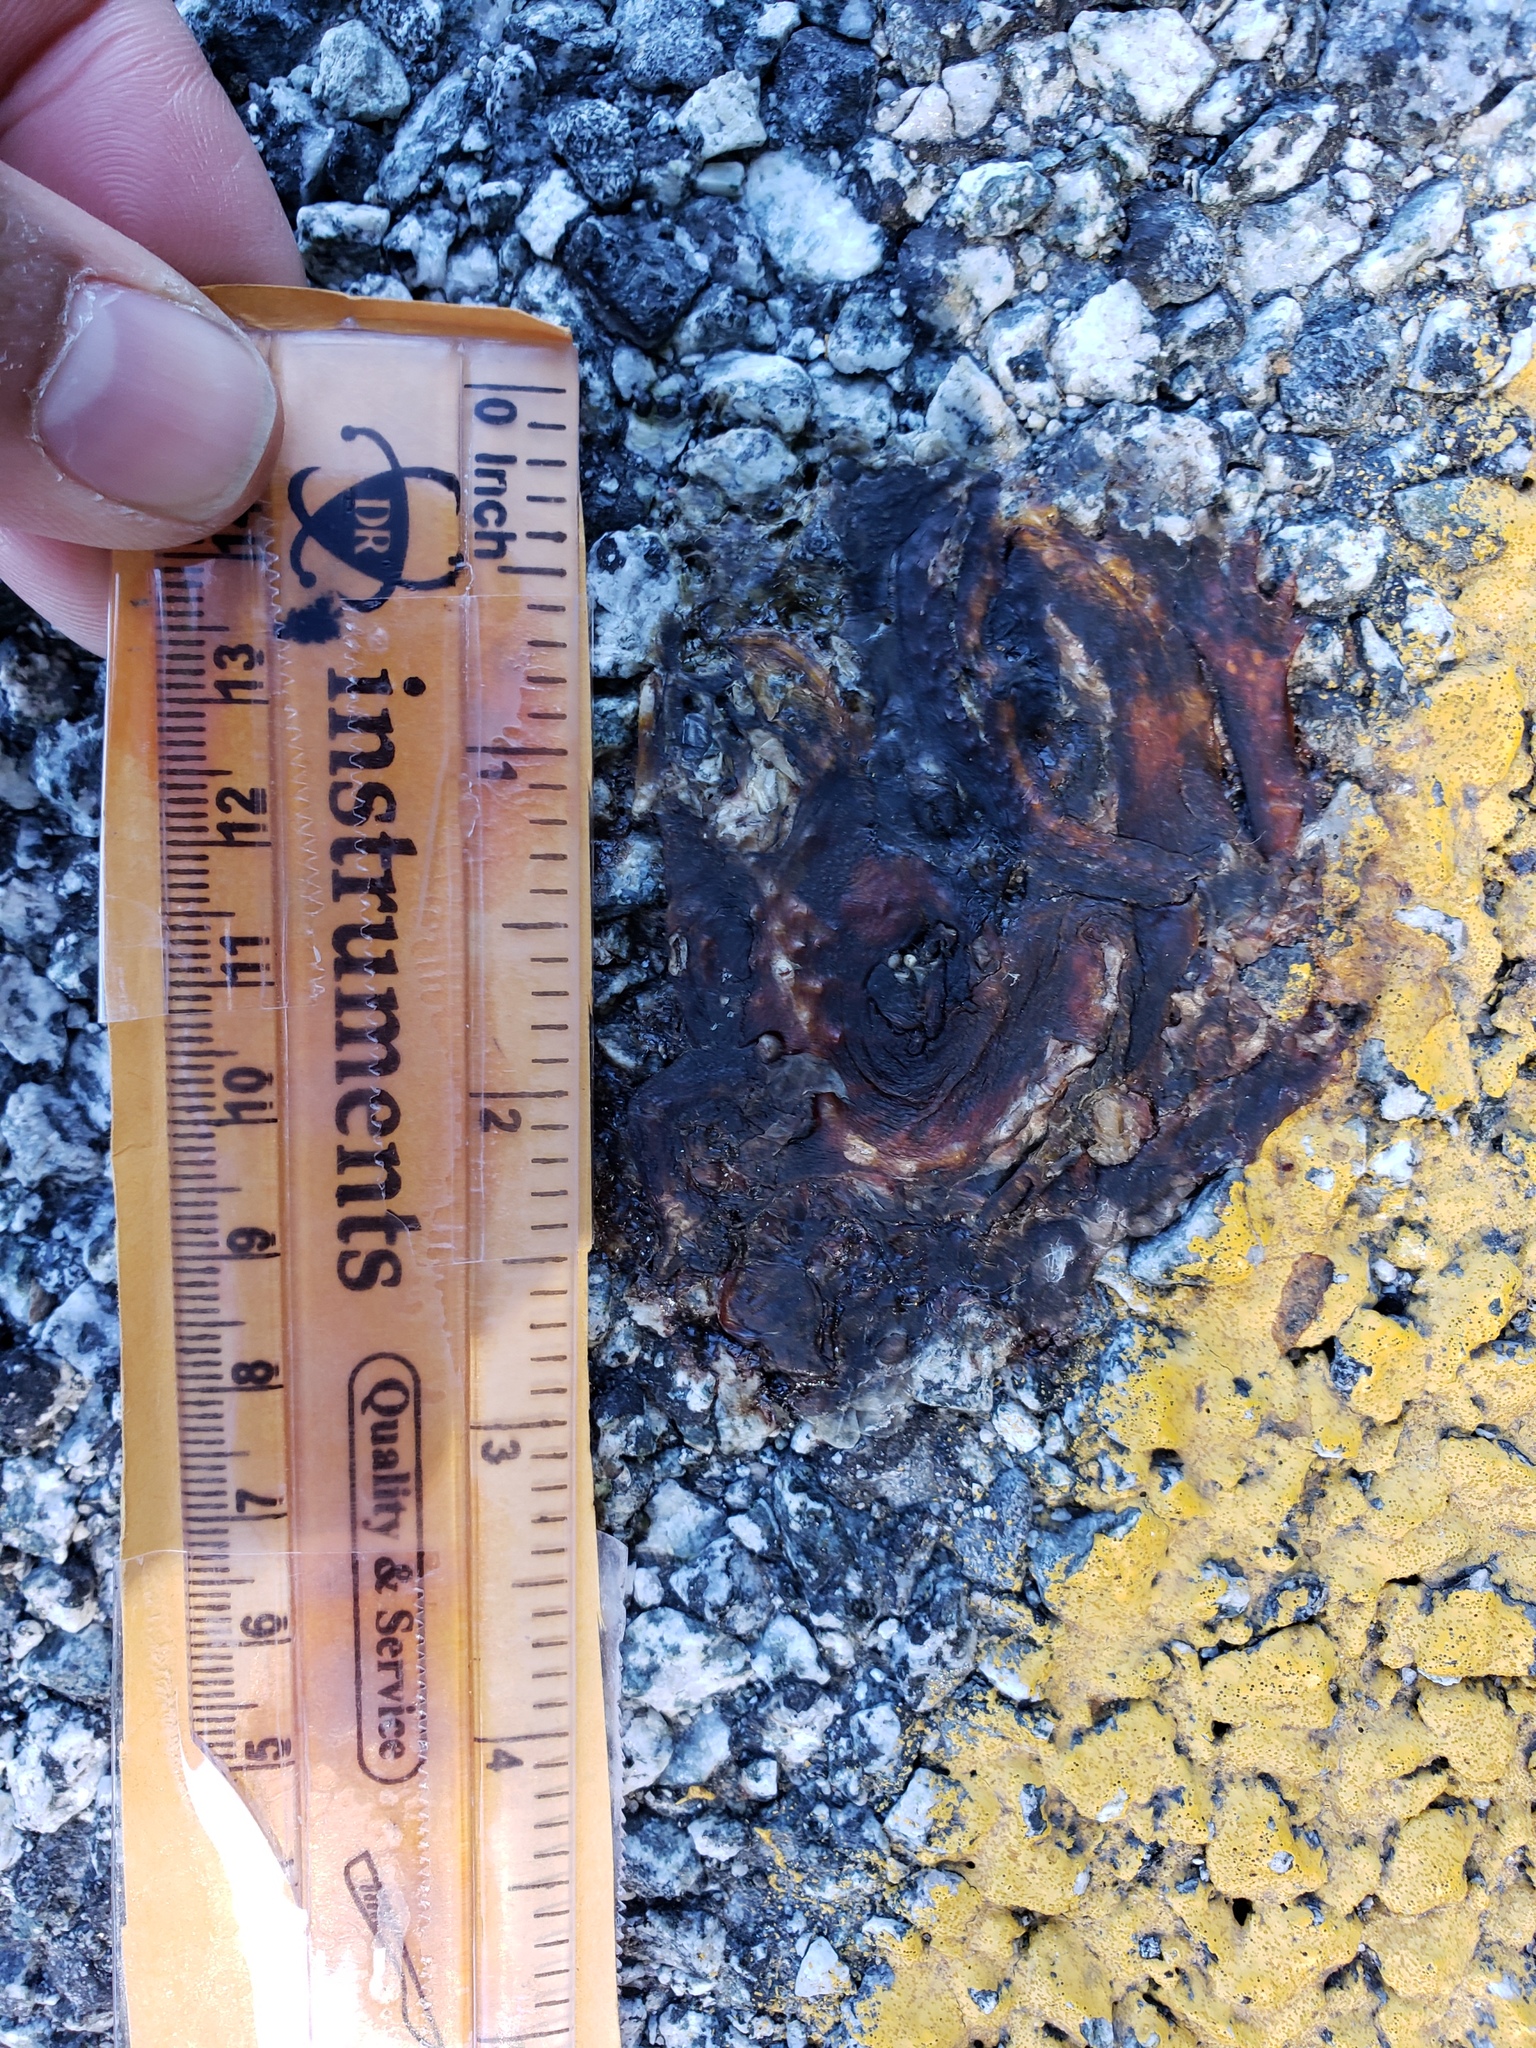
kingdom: Animalia
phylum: Chordata
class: Amphibia
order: Caudata
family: Salamandridae
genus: Taricha
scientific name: Taricha
